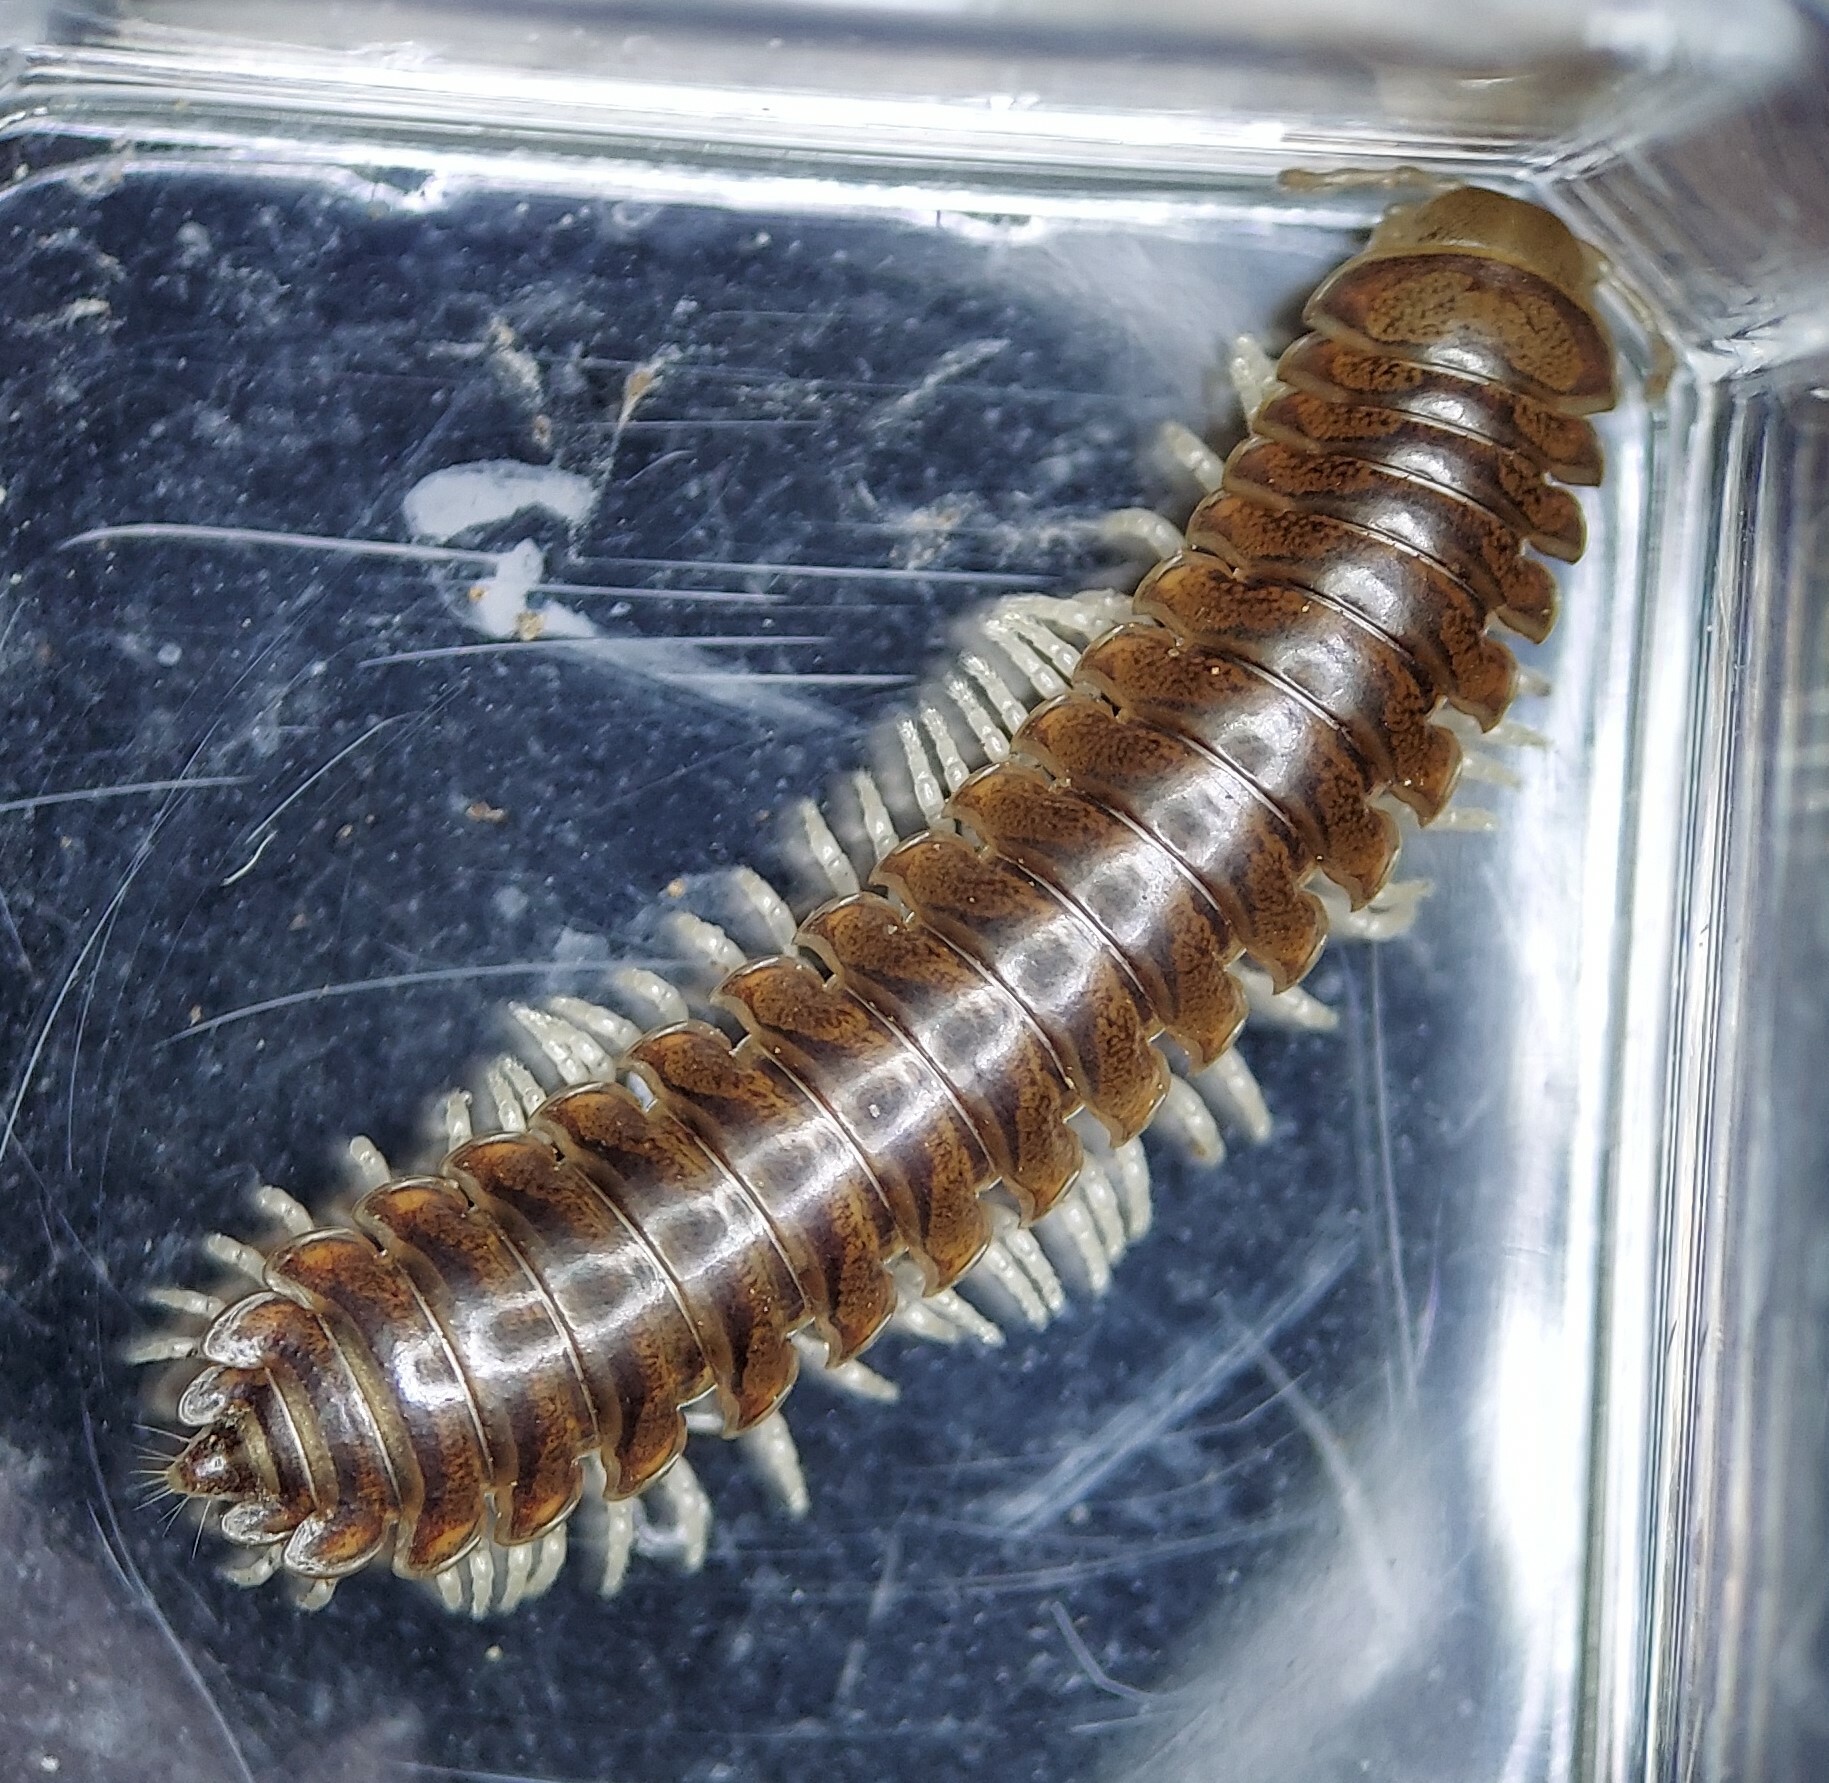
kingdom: Animalia
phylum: Arthropoda
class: Diplopoda
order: Polydesmida
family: Xystodesmidae
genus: Gyalostethus
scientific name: Gyalostethus monticolens
